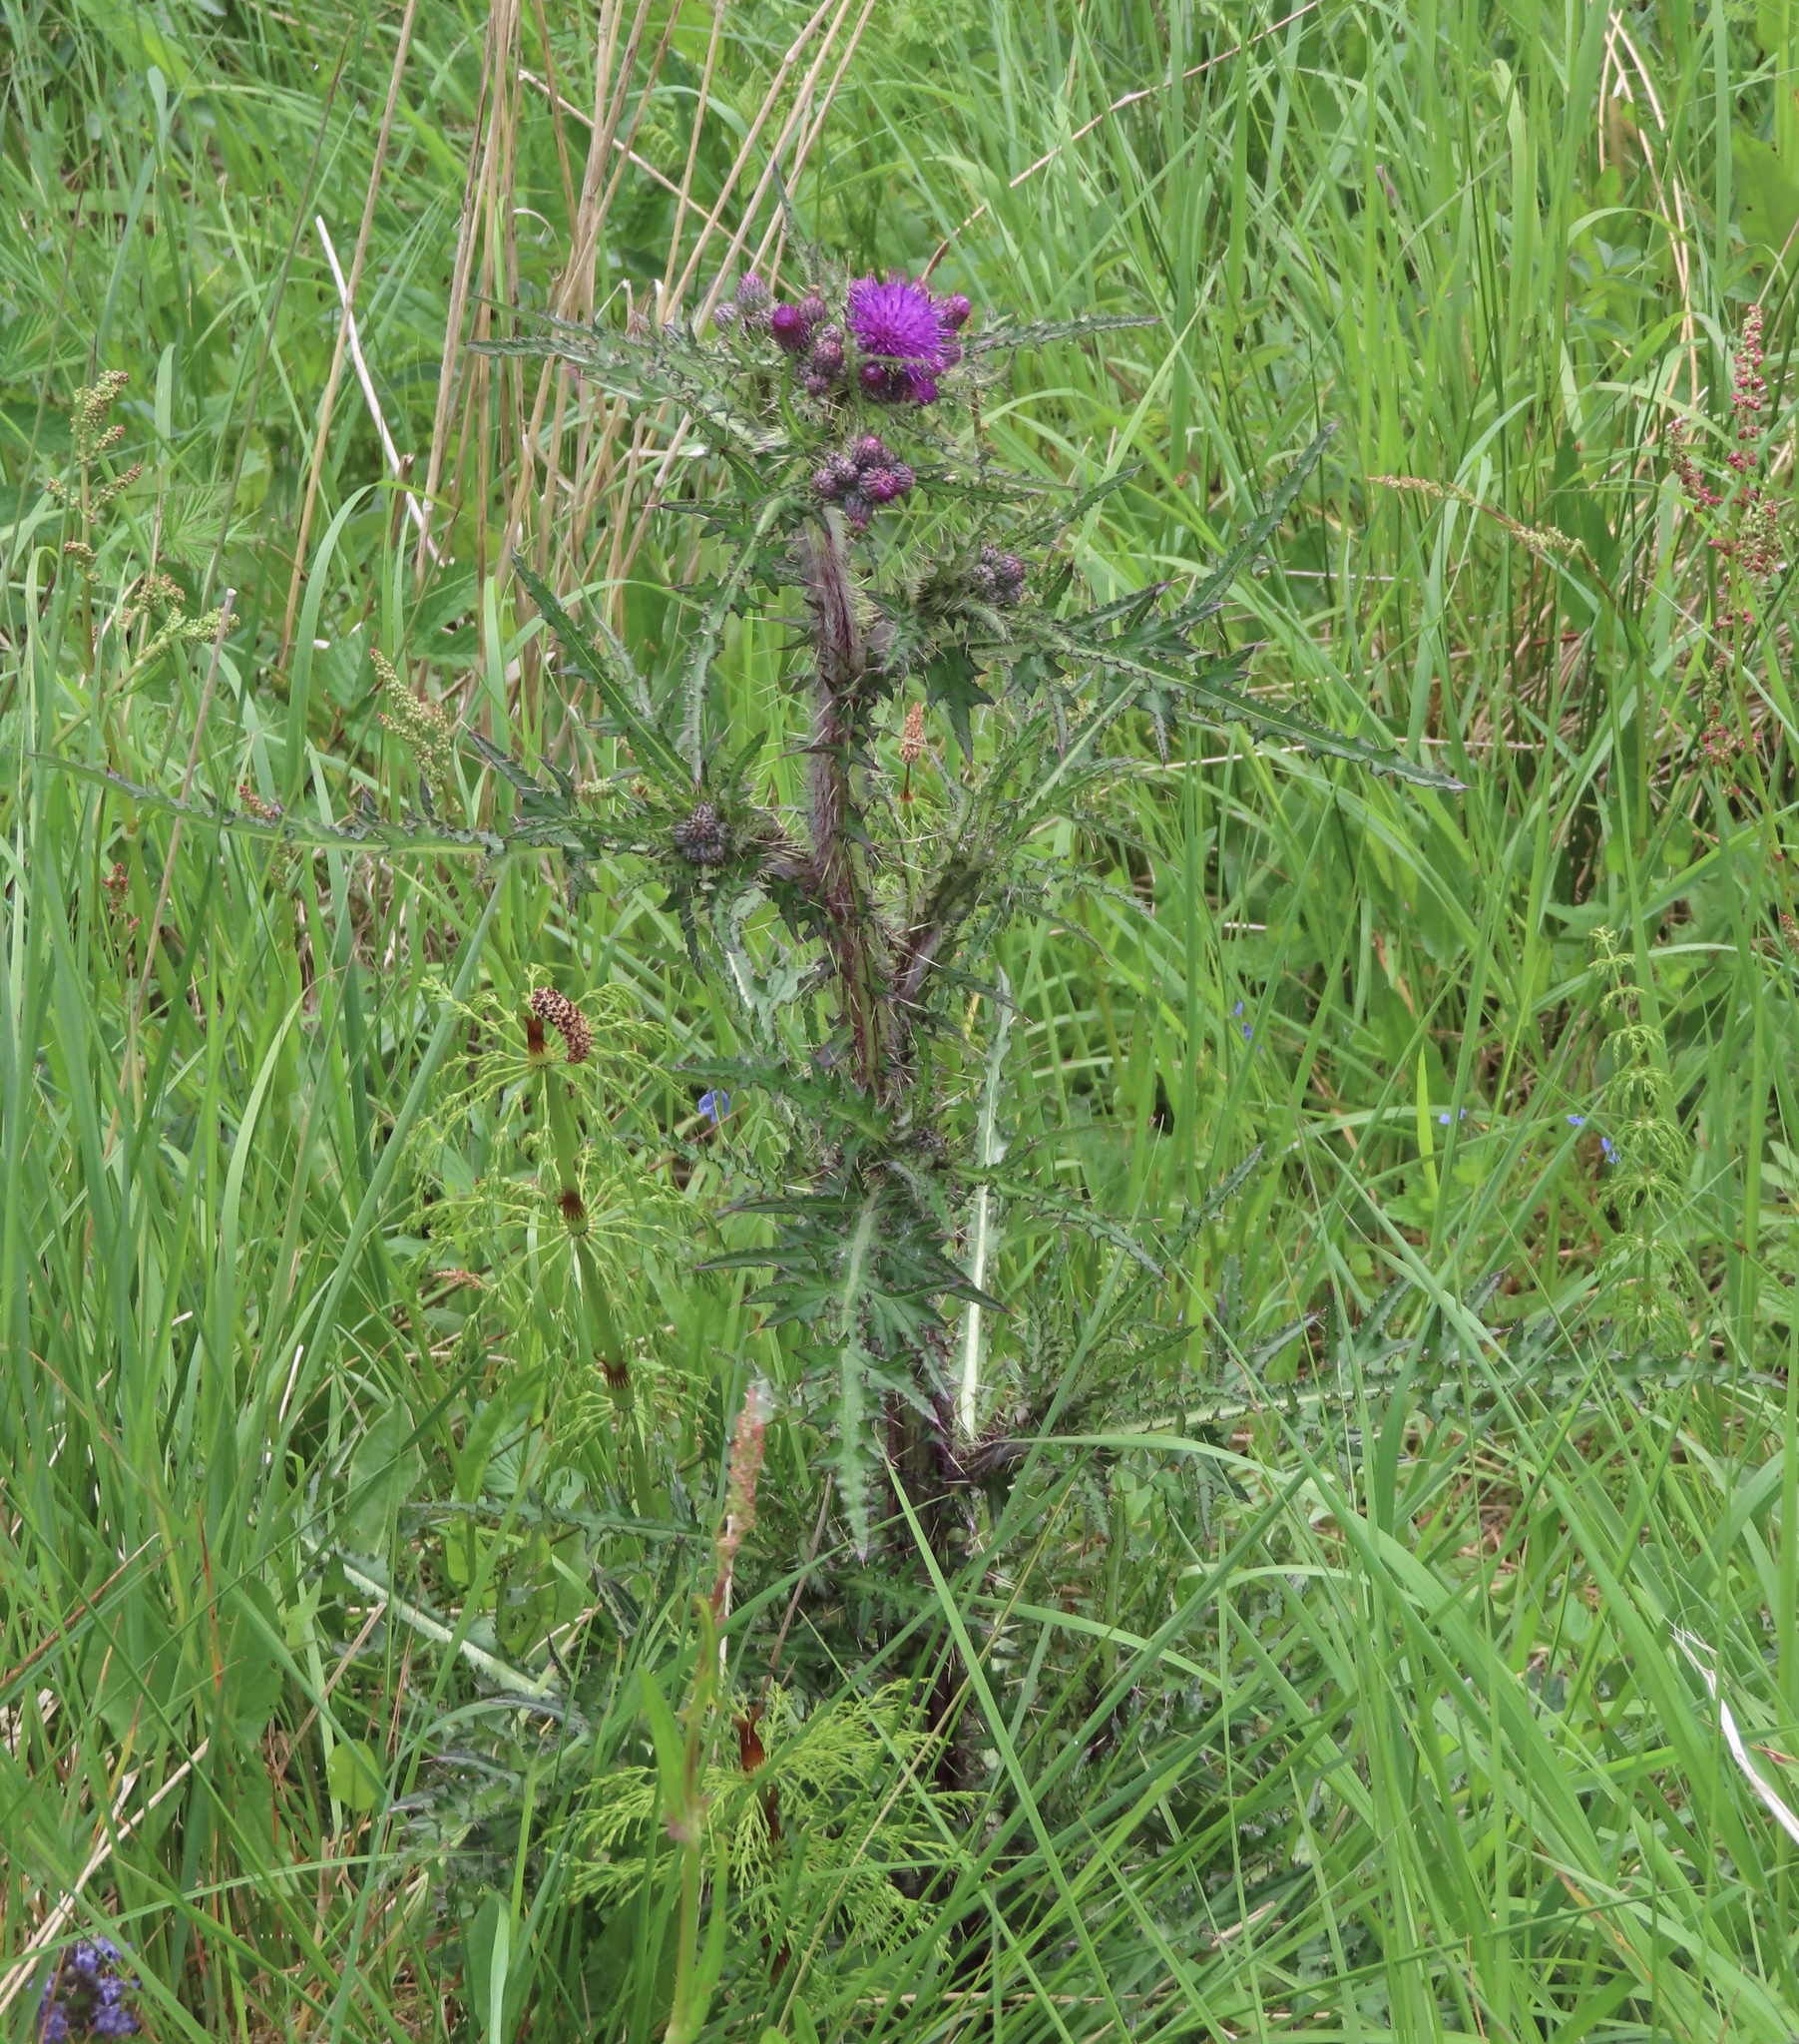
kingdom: Plantae
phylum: Tracheophyta
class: Magnoliopsida
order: Asterales
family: Asteraceae
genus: Cirsium
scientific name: Cirsium palustre
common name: Marsh thistle
